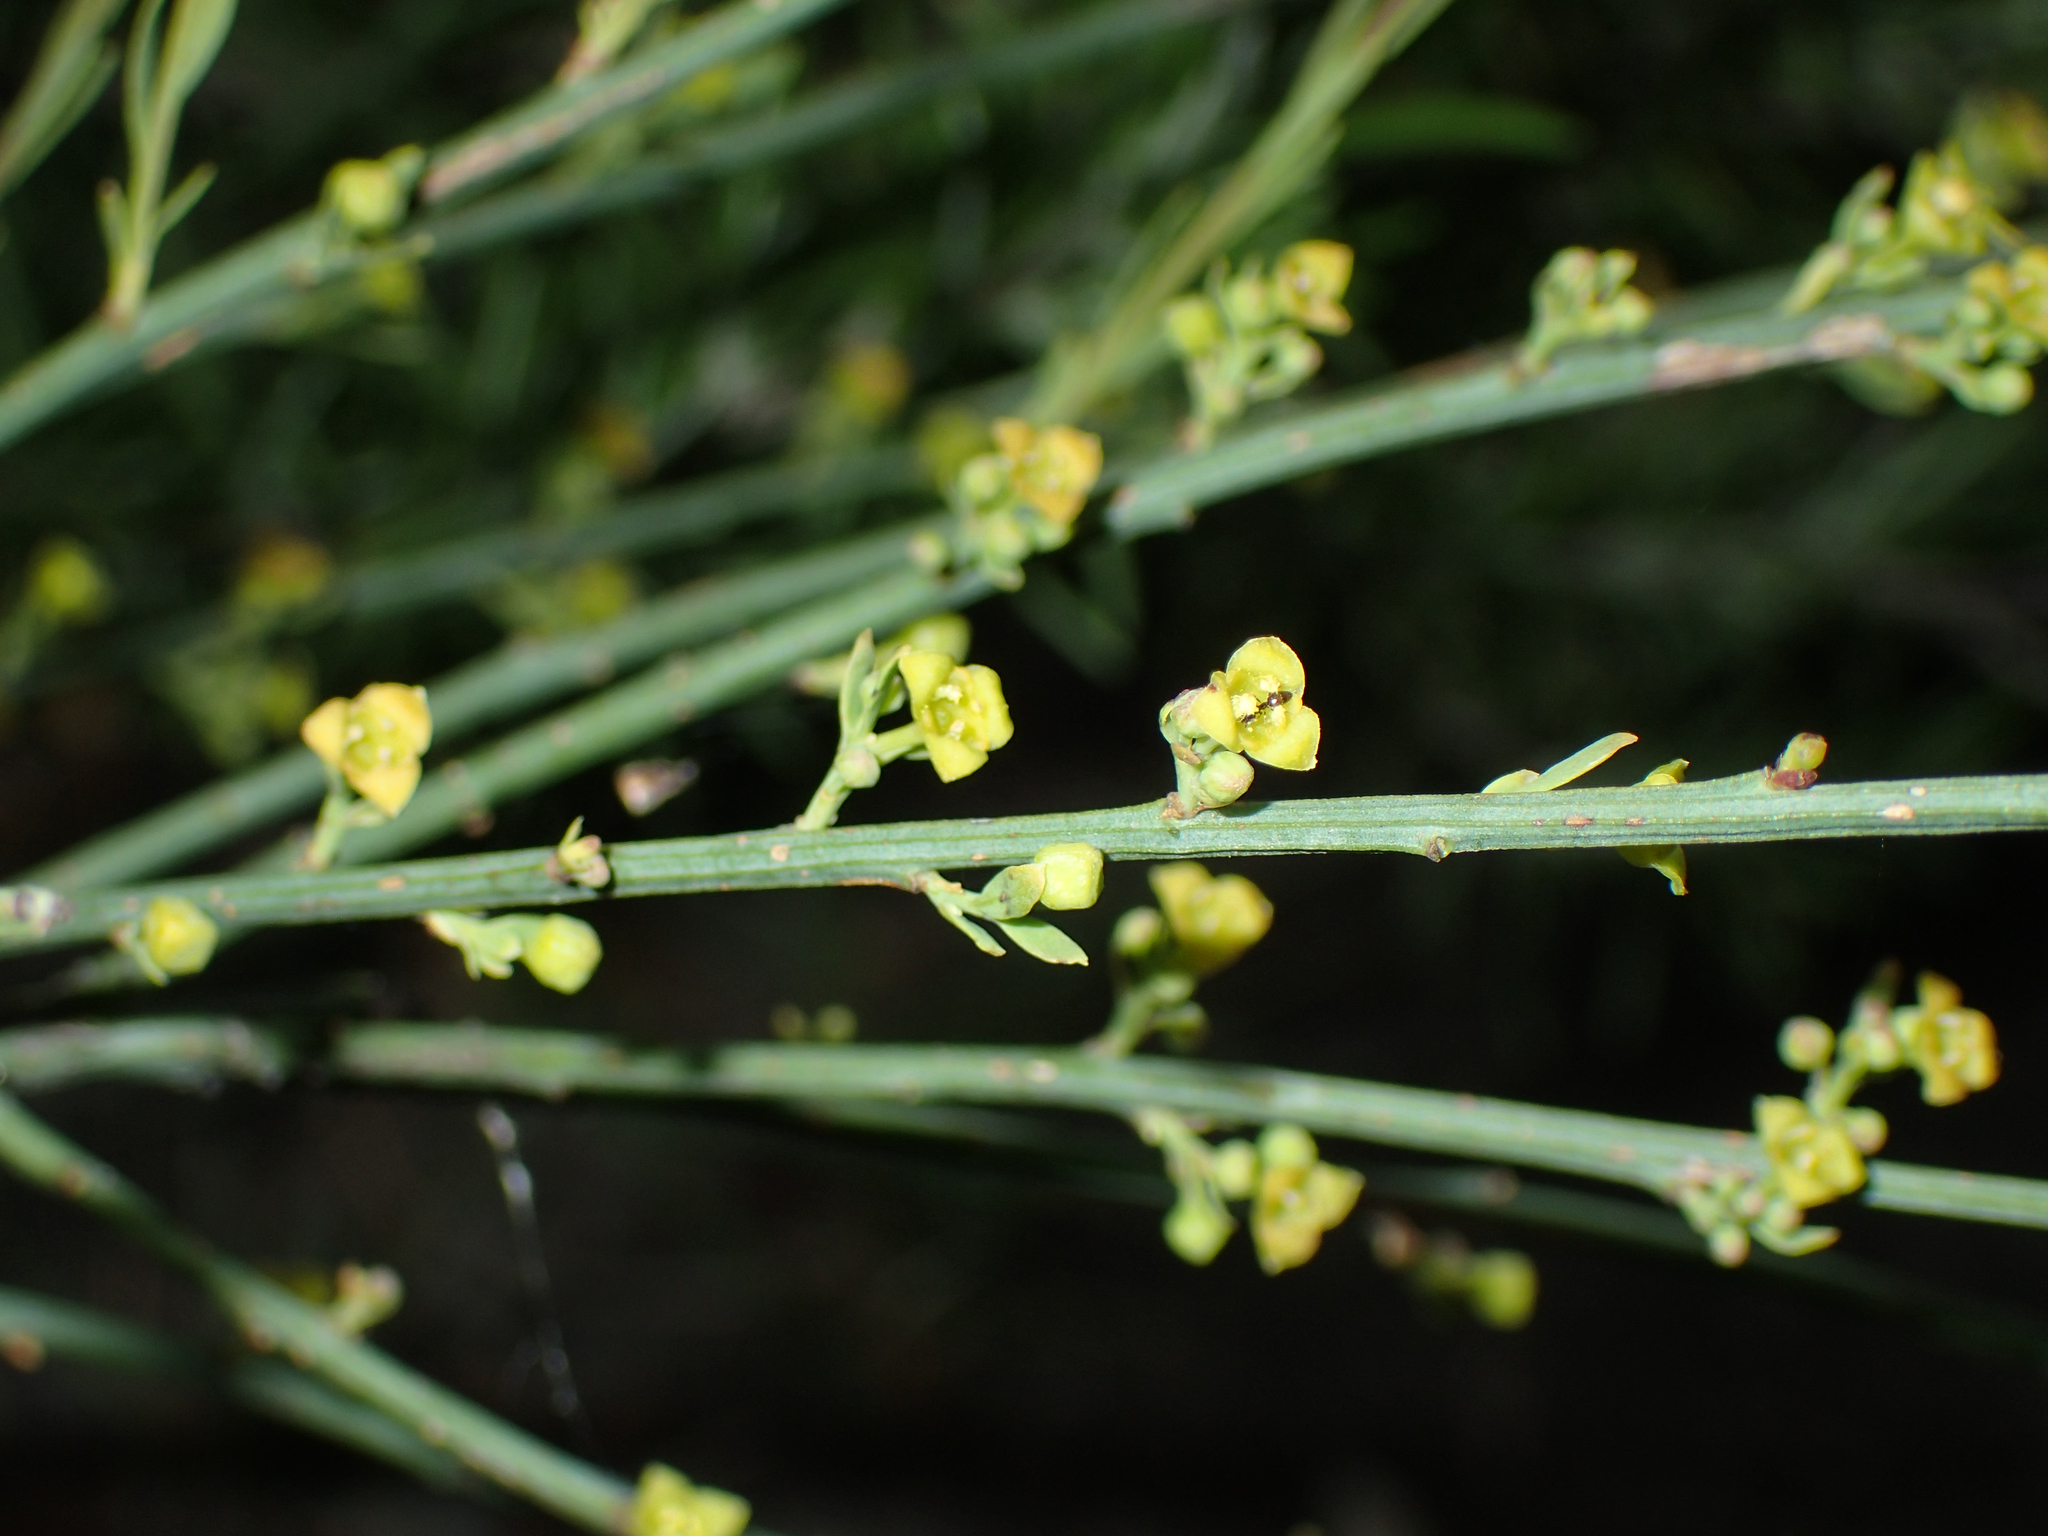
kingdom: Plantae
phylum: Tracheophyta
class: Magnoliopsida
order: Santalales
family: Santalaceae
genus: Osyris
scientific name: Osyris alba
